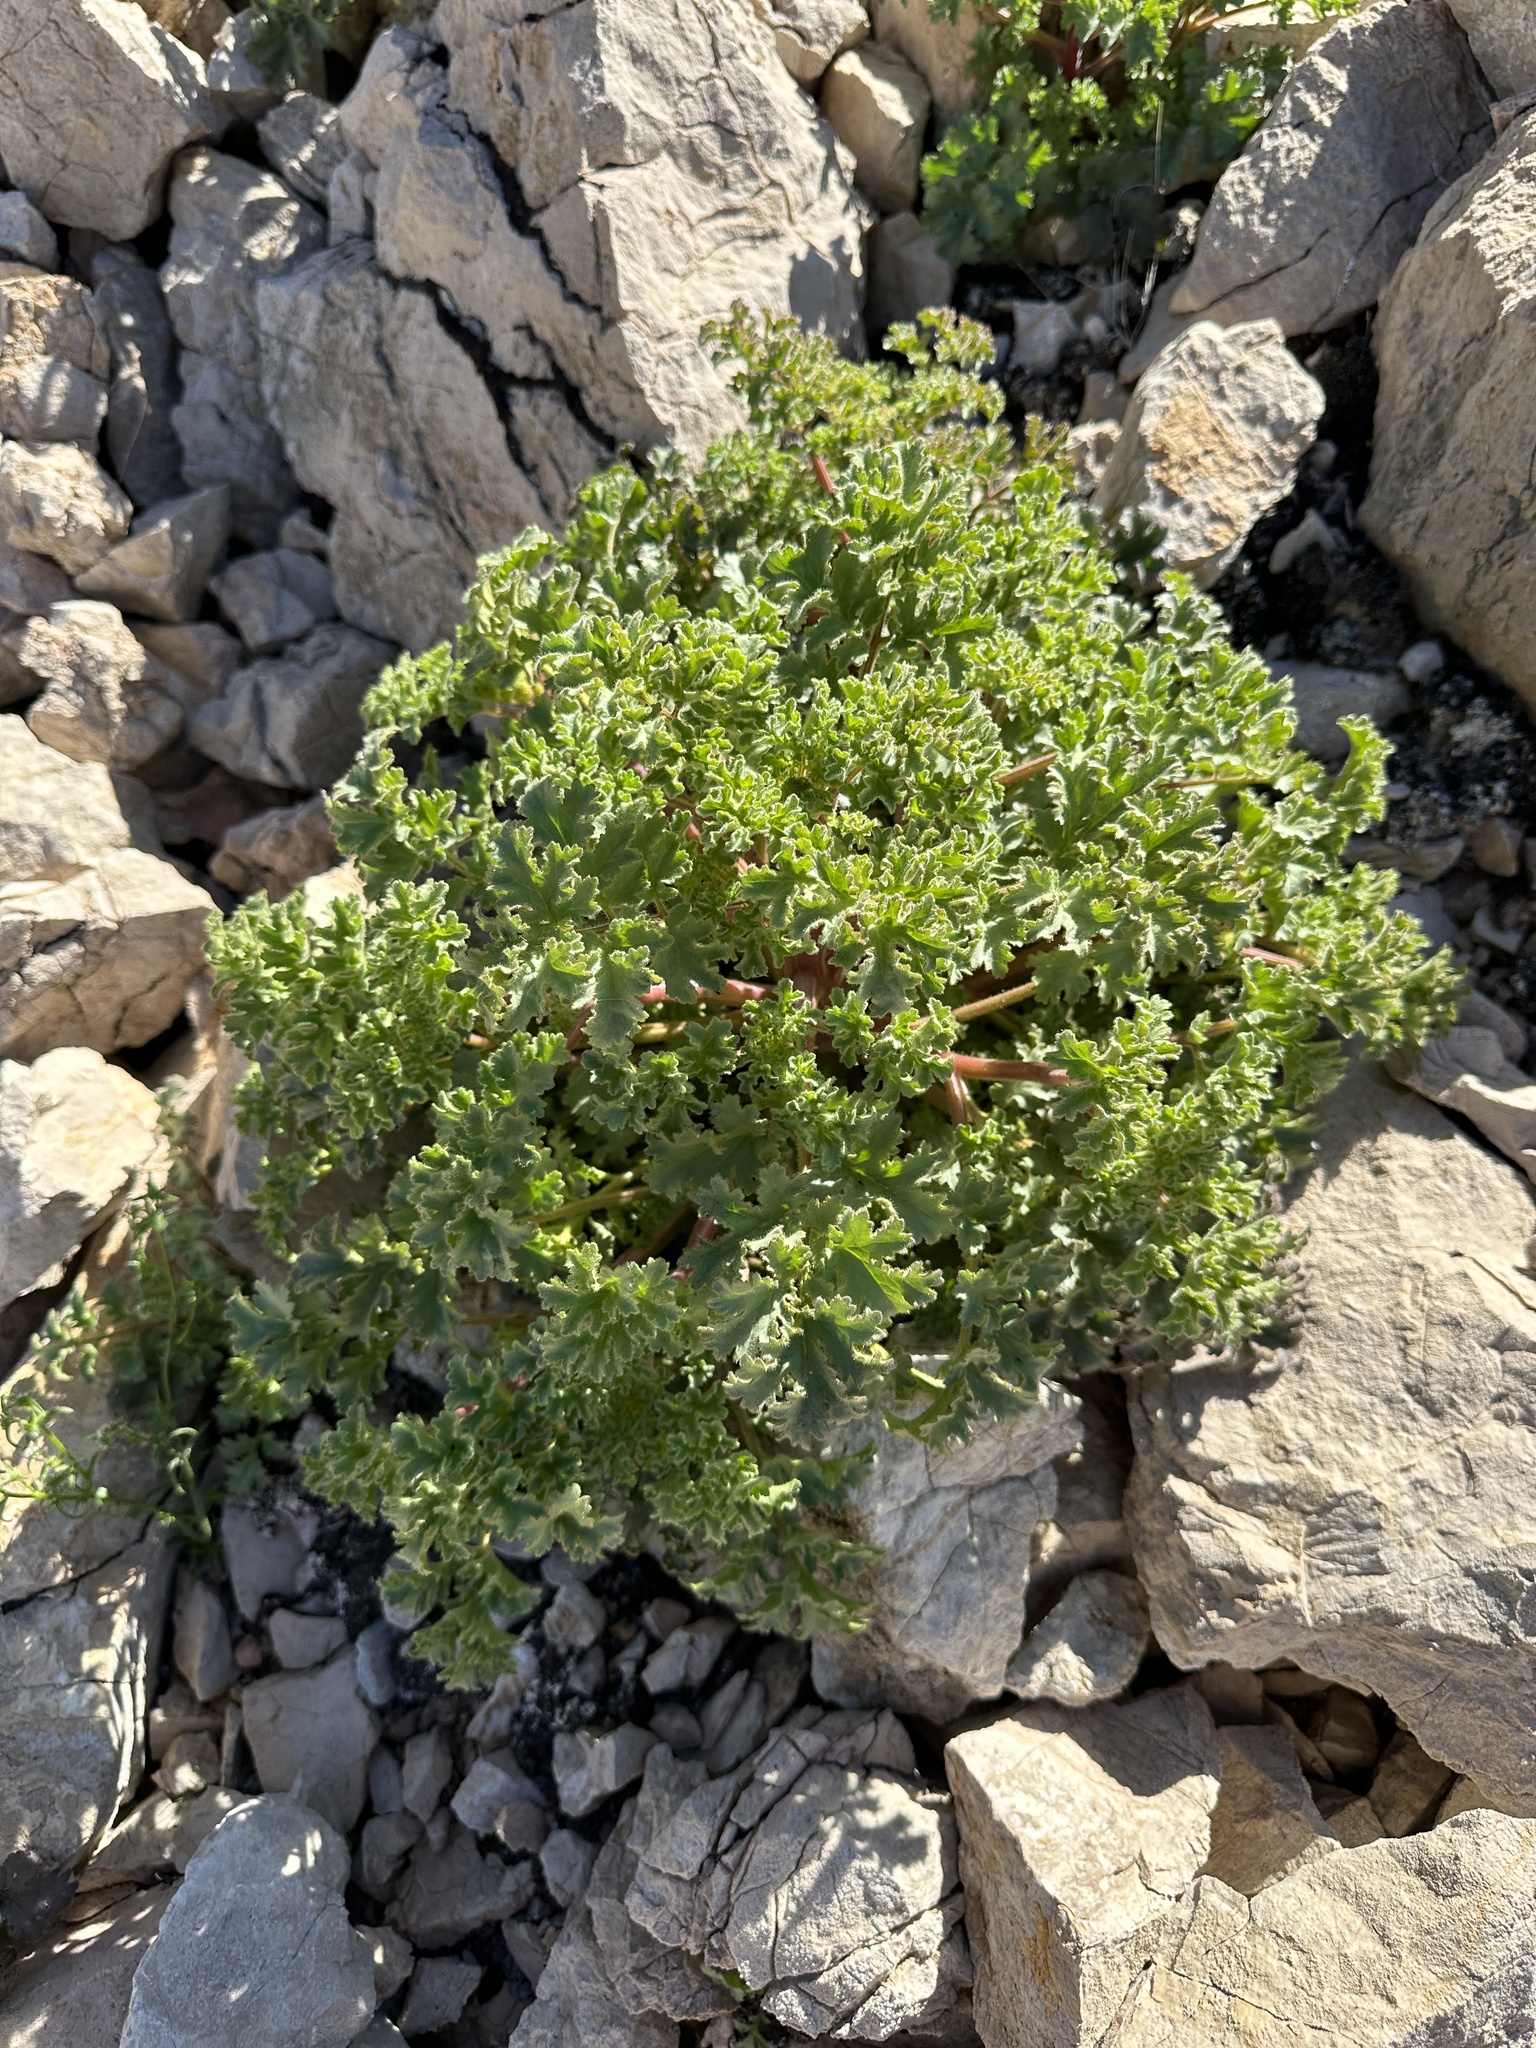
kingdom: Plantae
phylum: Tracheophyta
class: Magnoliopsida
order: Boraginales
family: Hydrophyllaceae
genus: Phacelia
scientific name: Phacelia pedicellata
